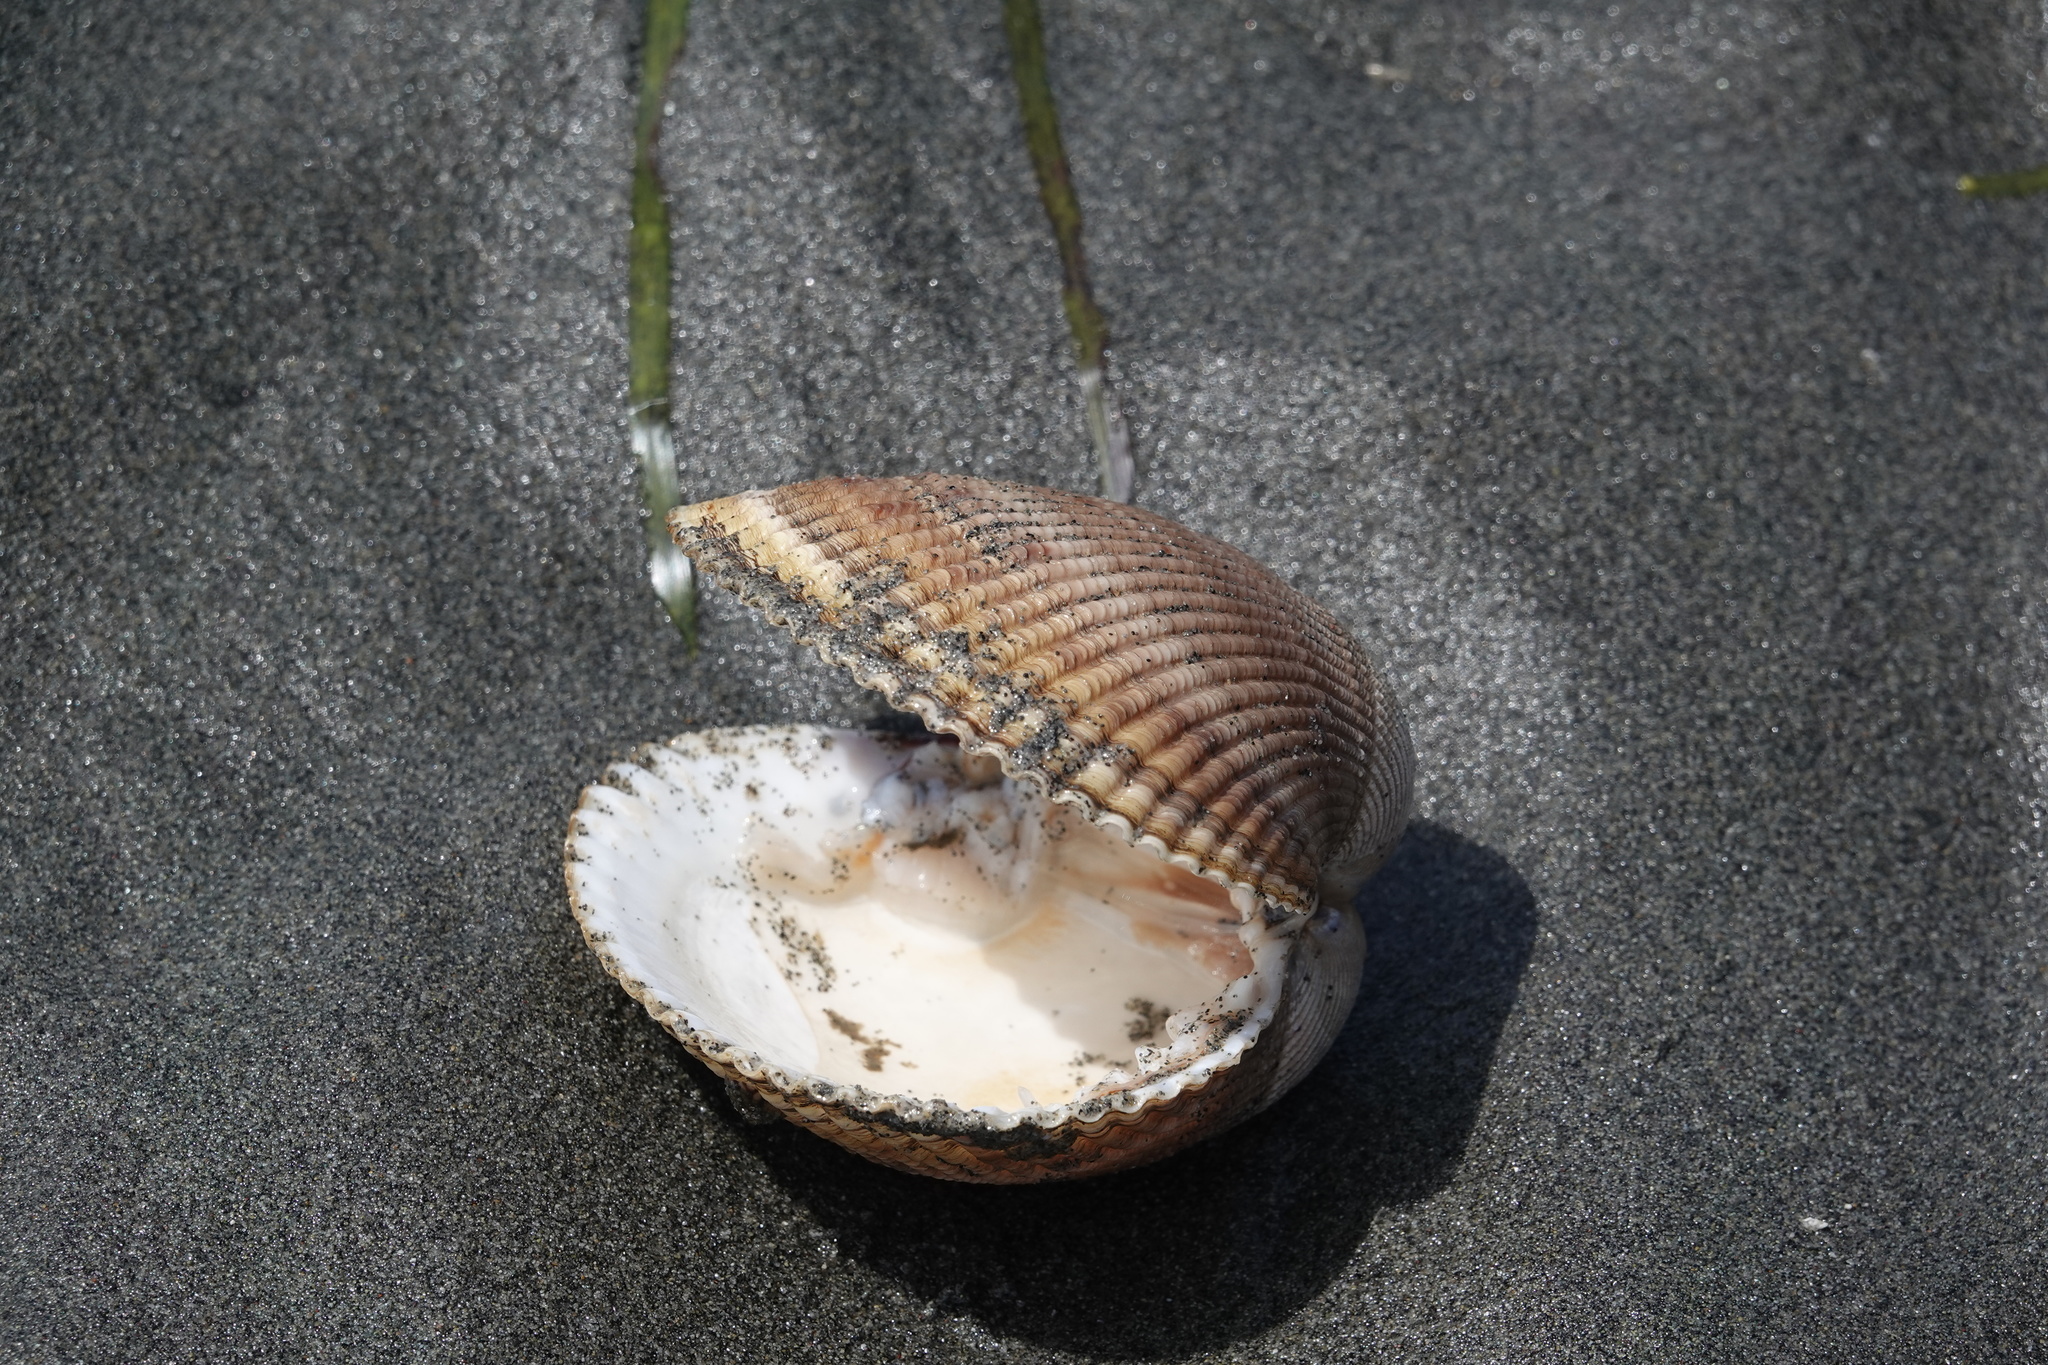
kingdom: Animalia
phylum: Mollusca
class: Bivalvia
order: Cardiida
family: Cardiidae
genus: Clinocardium
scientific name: Clinocardium nuttallii
